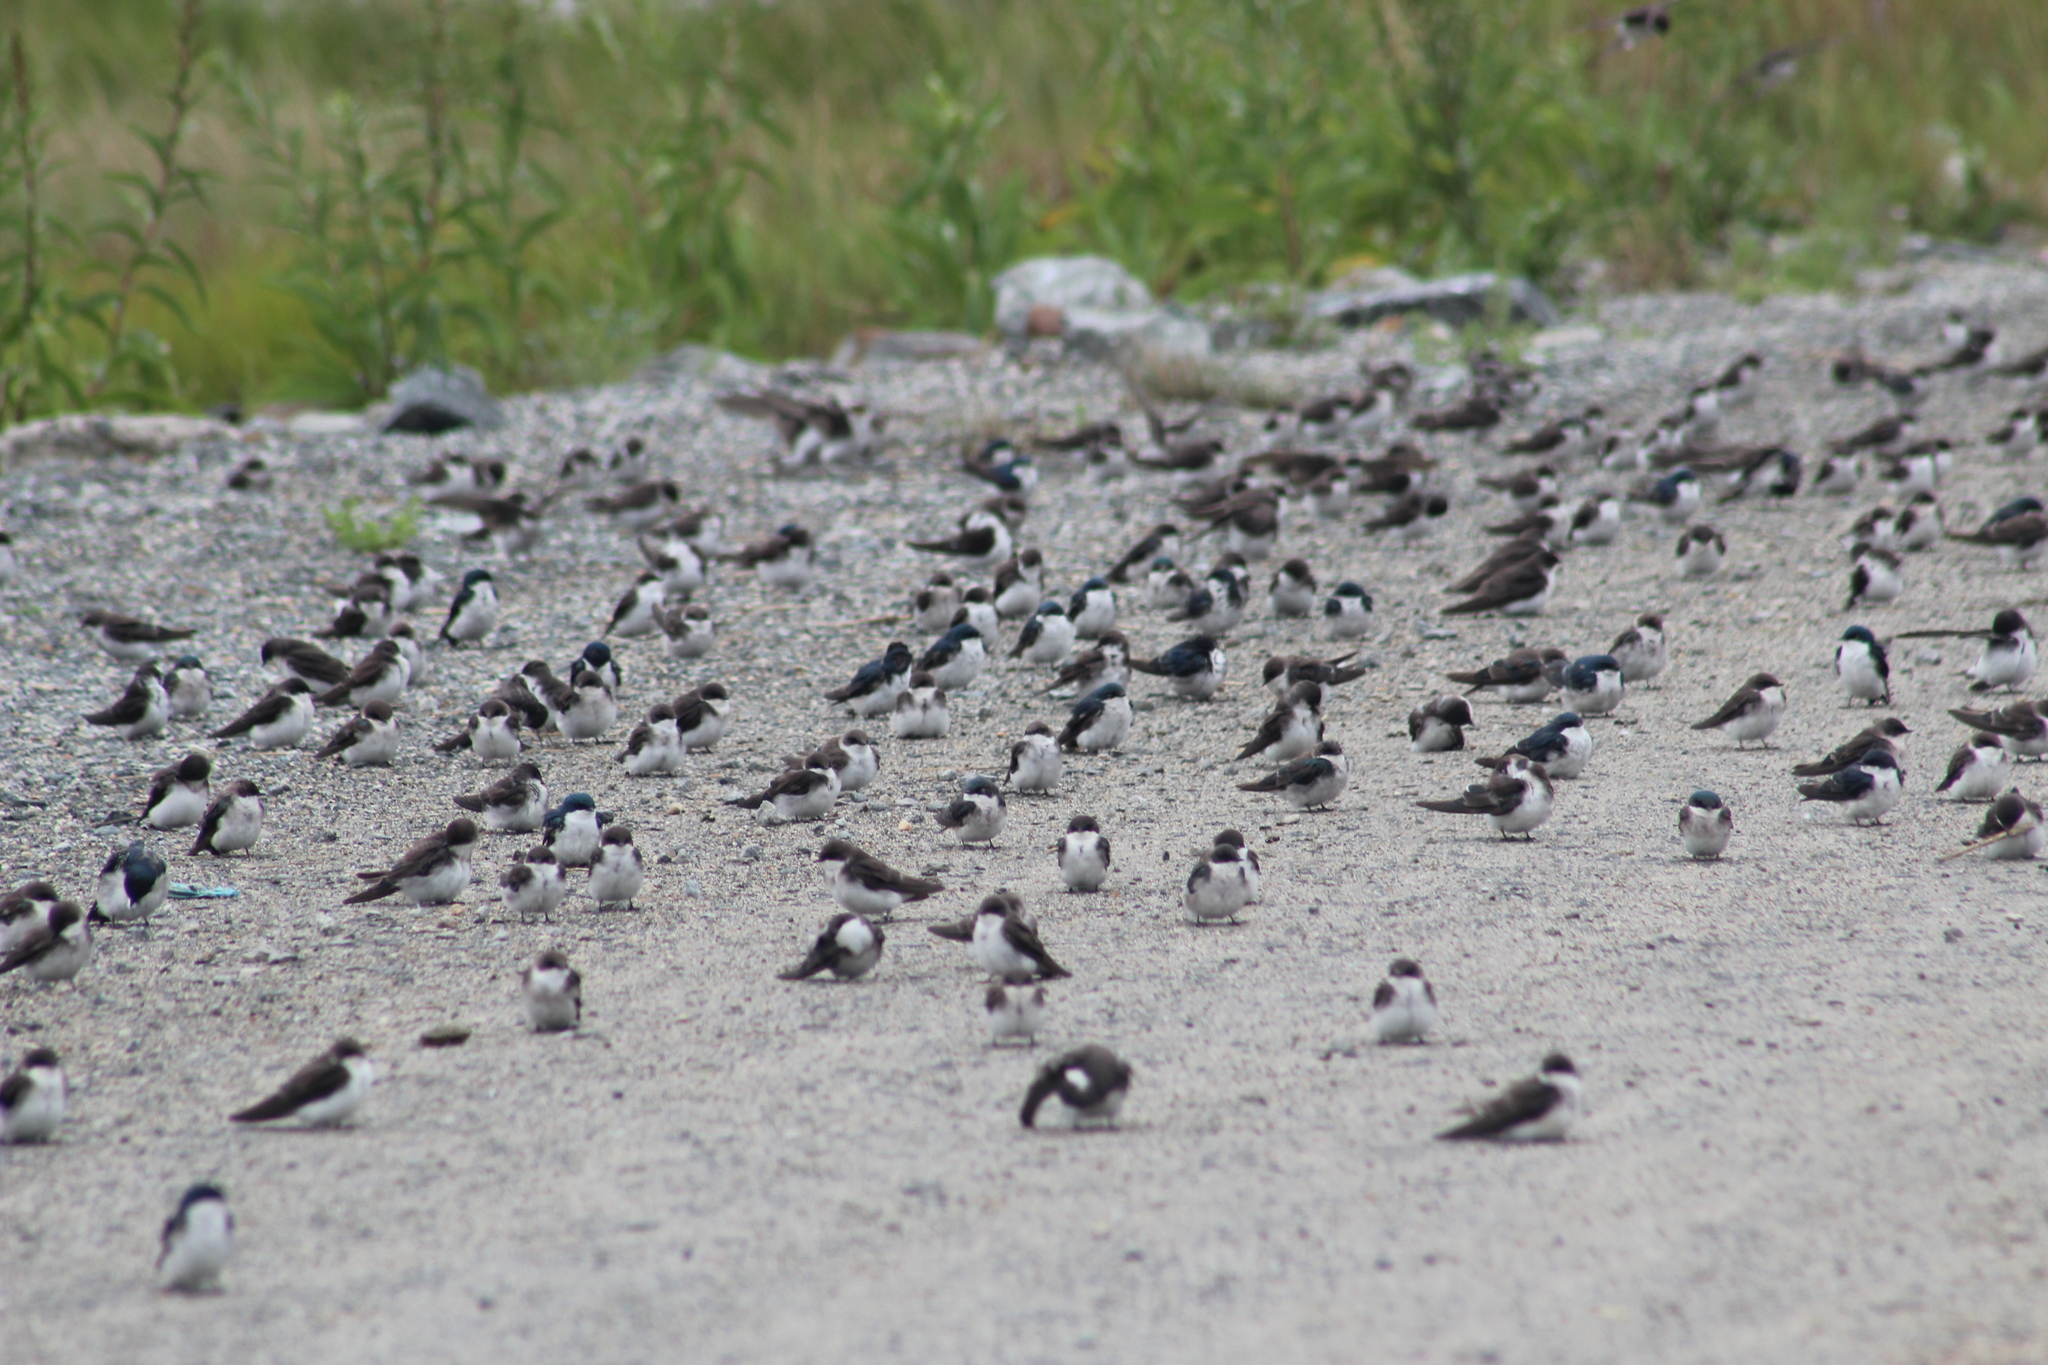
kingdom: Animalia
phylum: Chordata
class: Aves
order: Passeriformes
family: Hirundinidae
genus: Tachycineta
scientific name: Tachycineta bicolor
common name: Tree swallow
